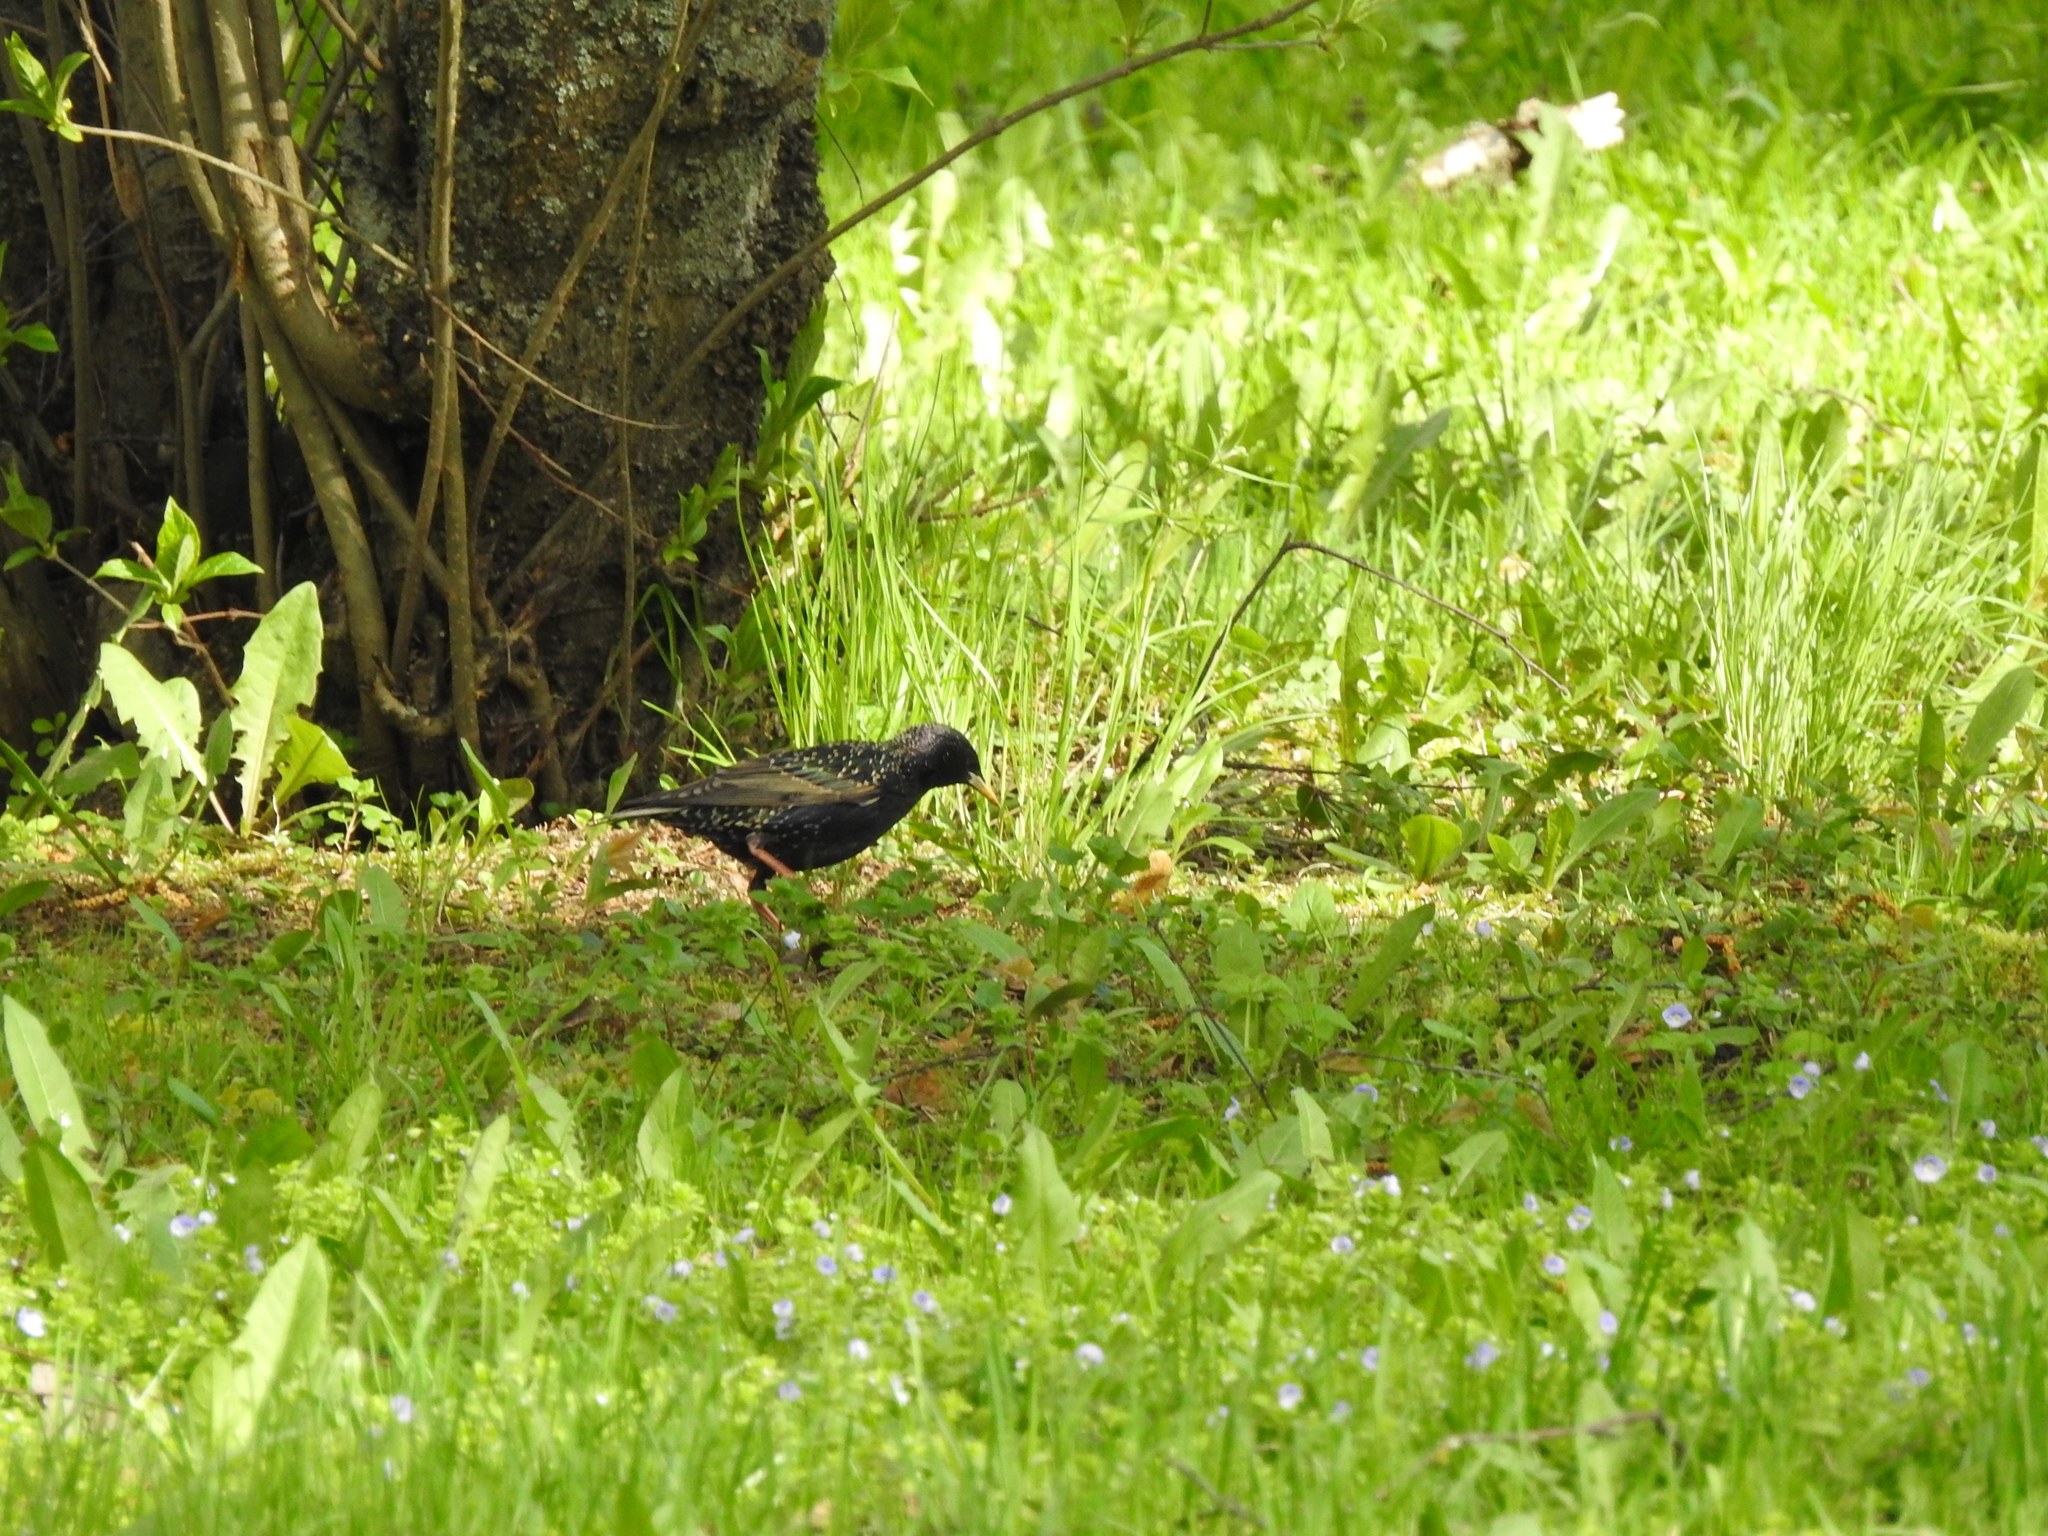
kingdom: Animalia
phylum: Chordata
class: Aves
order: Passeriformes
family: Sturnidae
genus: Sturnus
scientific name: Sturnus vulgaris
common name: Common starling
